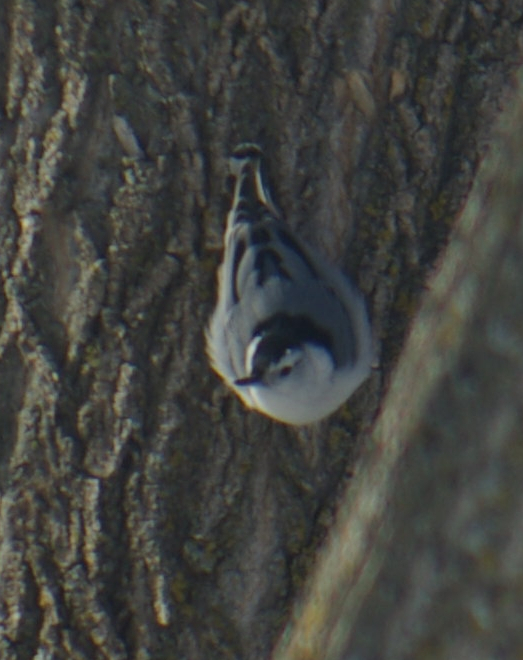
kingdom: Animalia
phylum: Chordata
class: Aves
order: Passeriformes
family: Sittidae
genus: Sitta
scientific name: Sitta carolinensis
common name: White-breasted nuthatch
